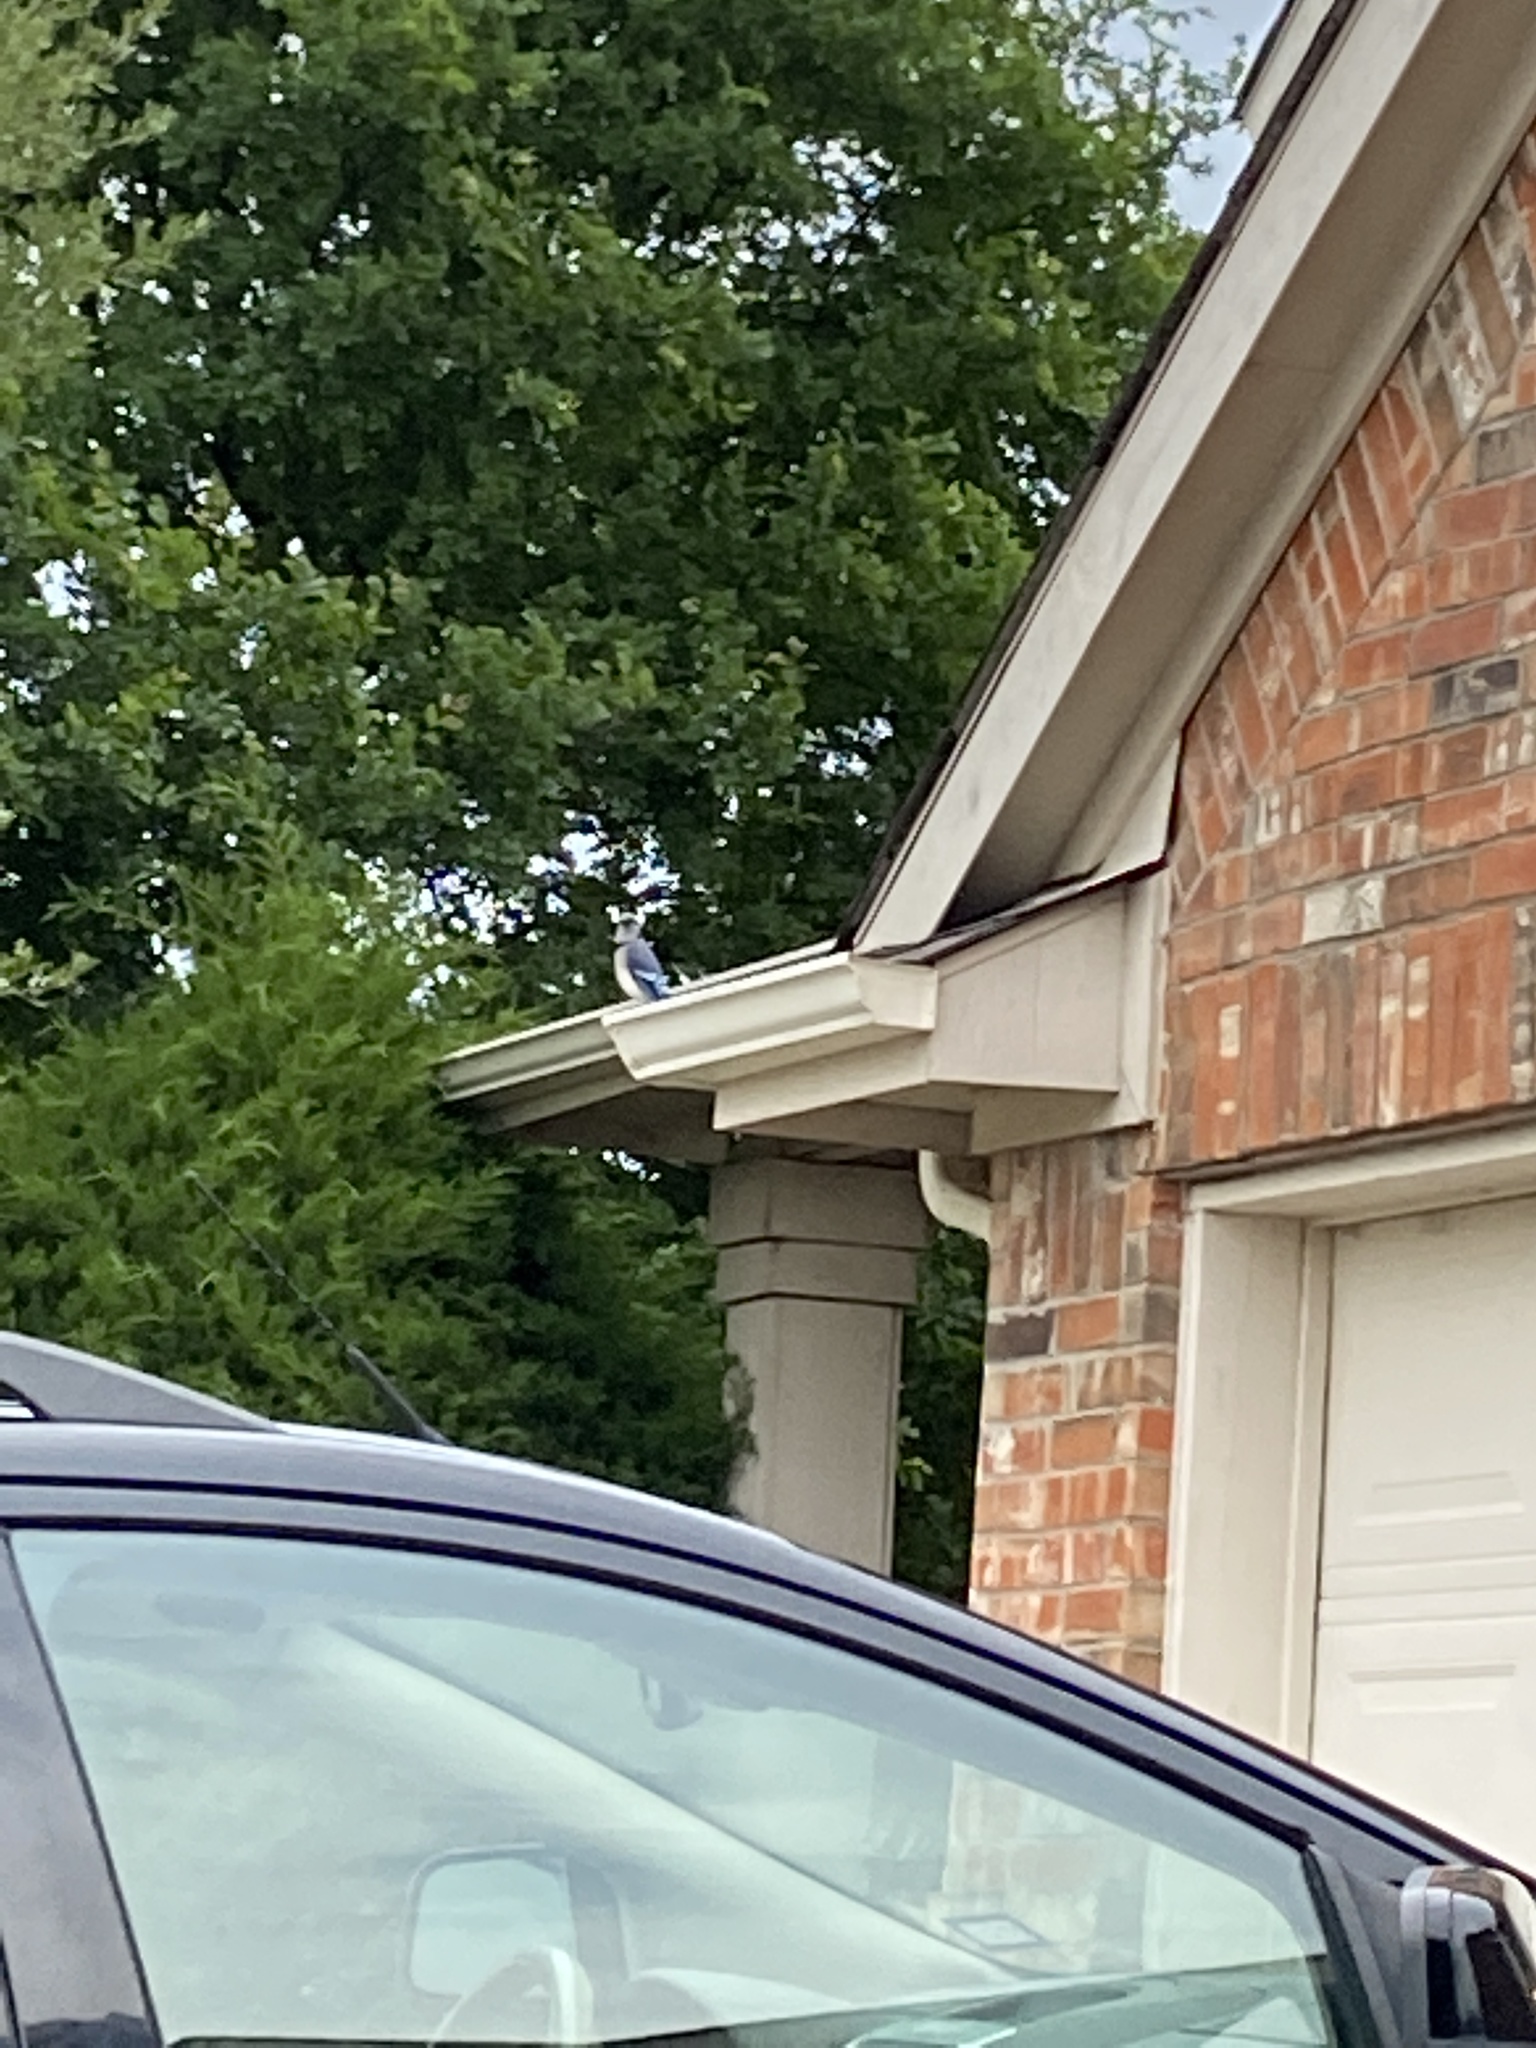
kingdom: Animalia
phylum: Chordata
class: Aves
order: Passeriformes
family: Corvidae
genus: Cyanocitta
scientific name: Cyanocitta cristata
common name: Blue jay
